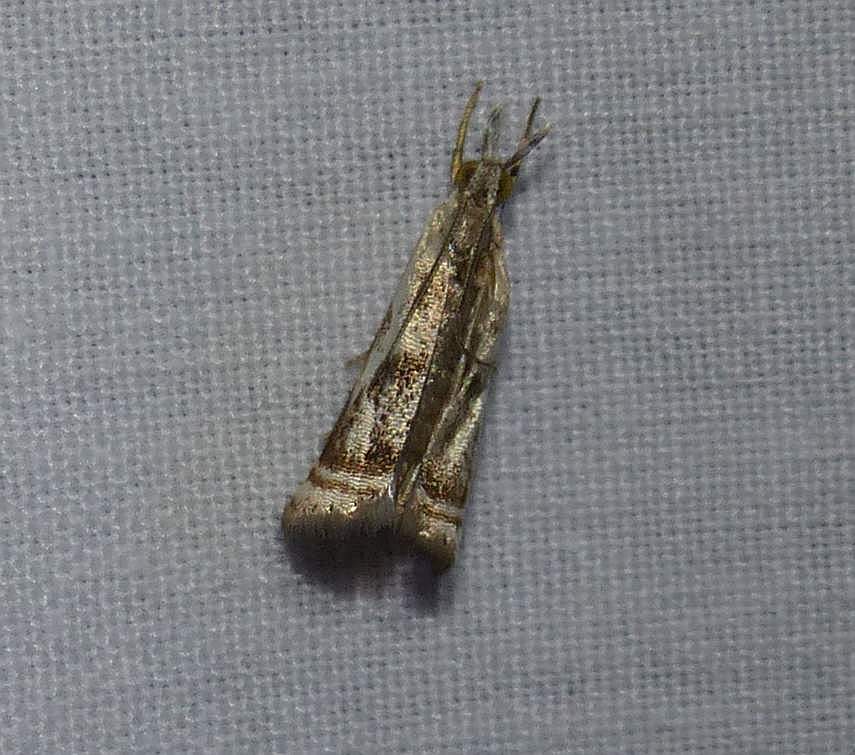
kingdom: Animalia
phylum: Arthropoda
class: Insecta
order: Lepidoptera
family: Crambidae
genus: Microcrambus
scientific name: Microcrambus elegans
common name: Elegant grass-veneer
